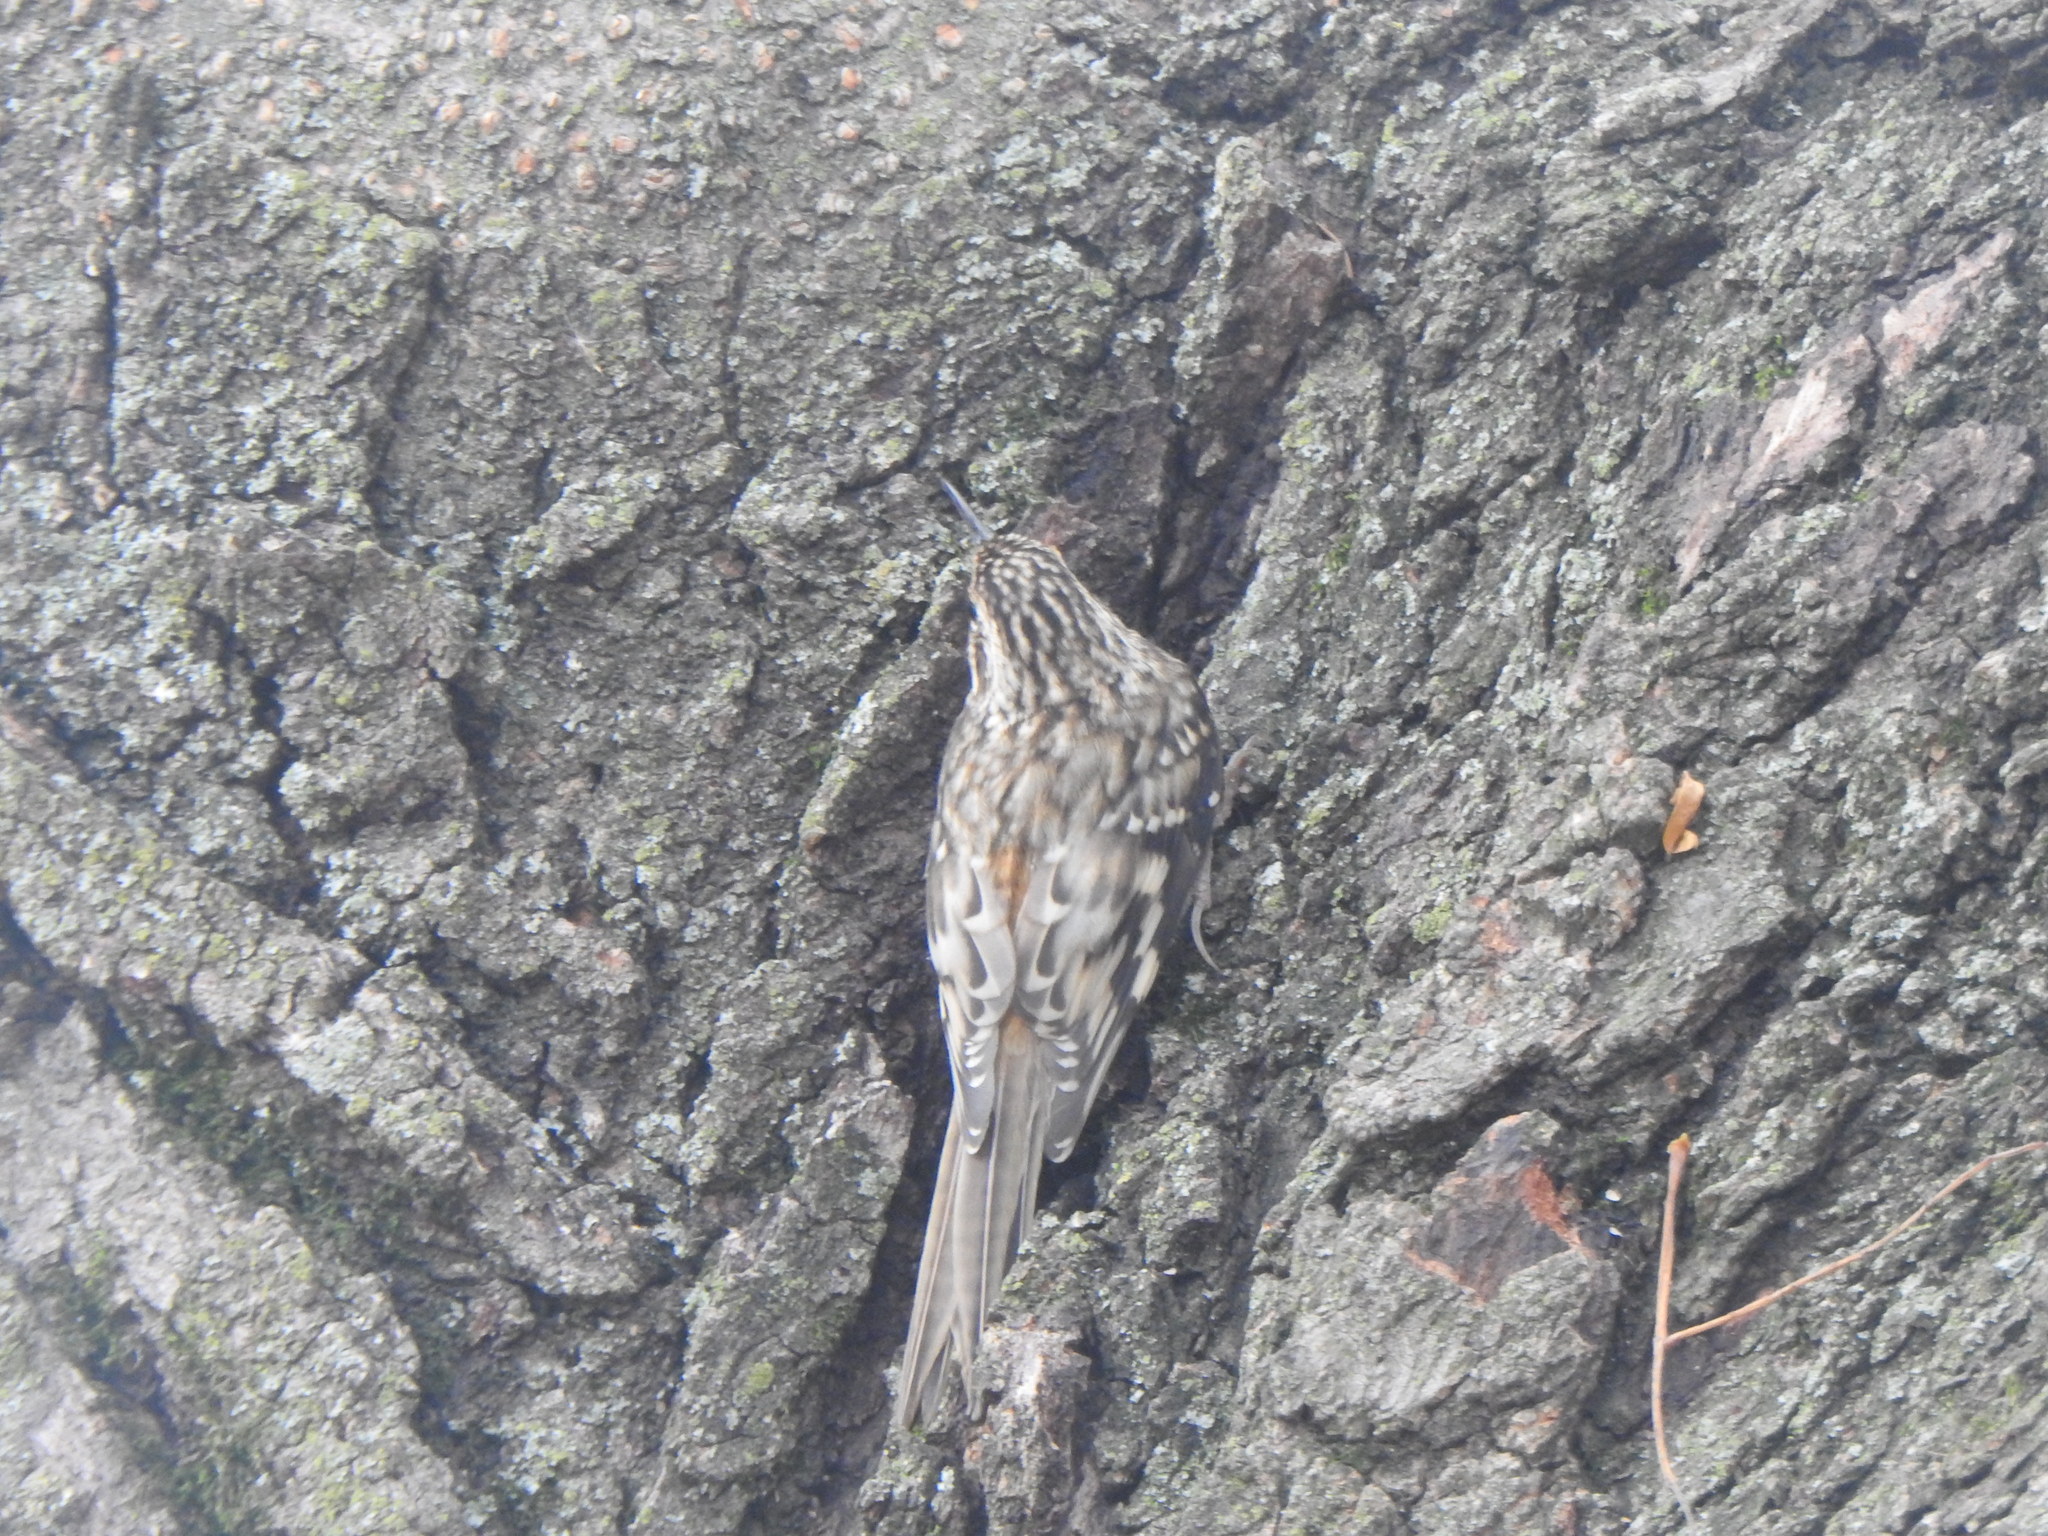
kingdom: Animalia
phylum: Chordata
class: Aves
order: Passeriformes
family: Certhiidae
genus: Certhia
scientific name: Certhia americana
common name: Brown creeper
